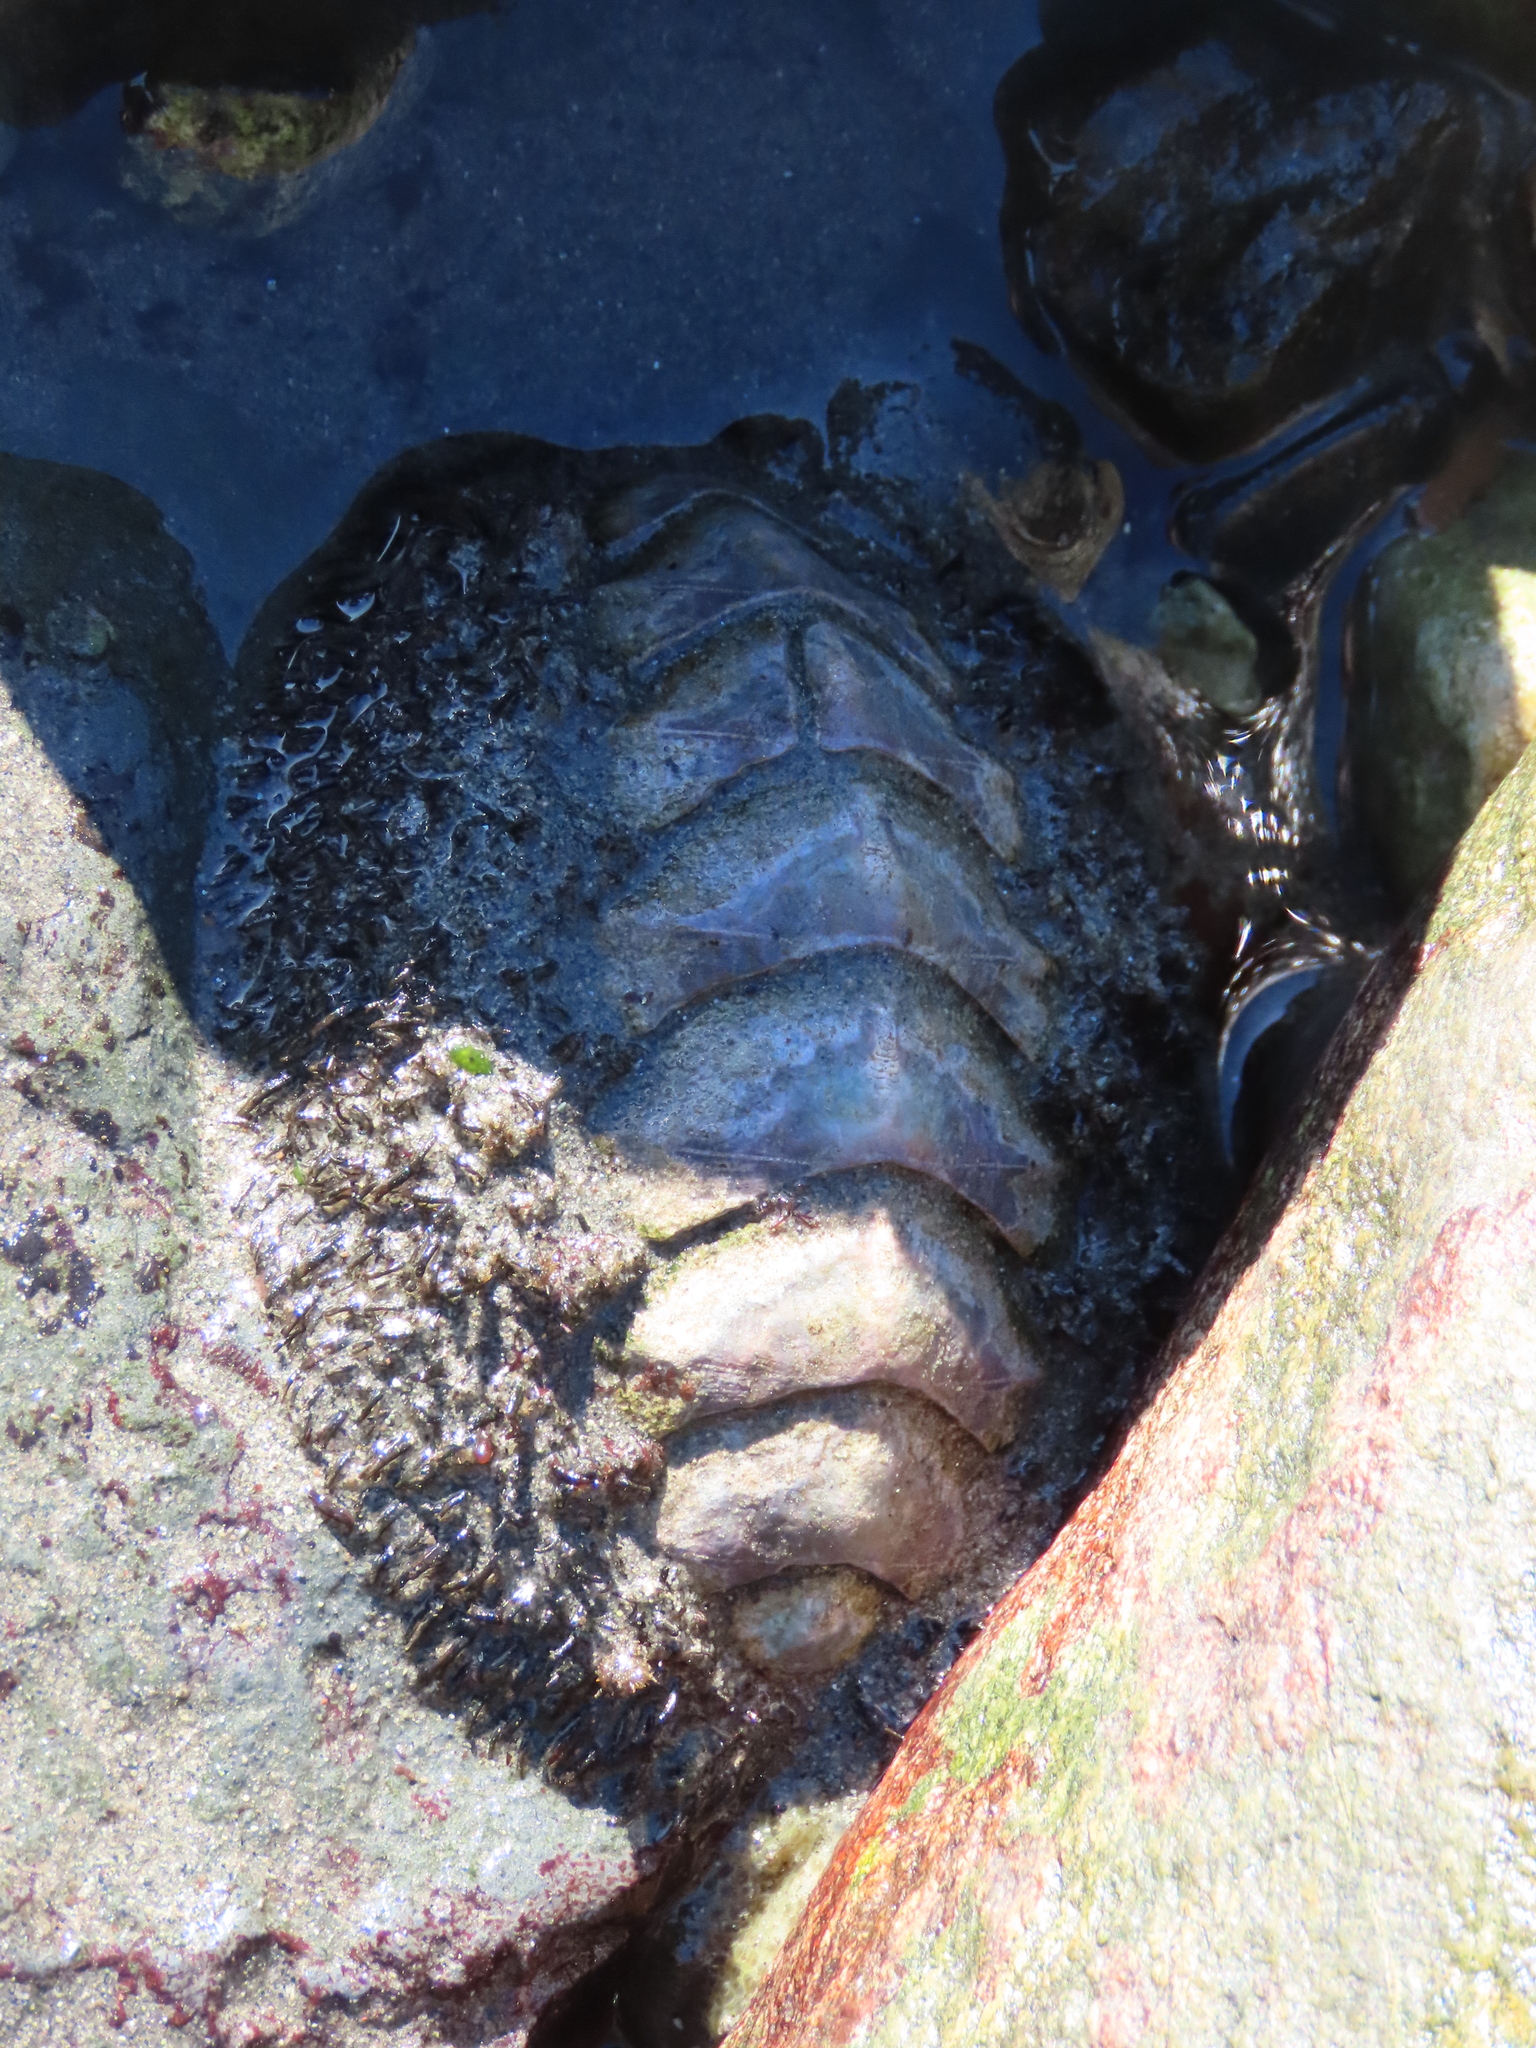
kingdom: Animalia
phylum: Mollusca
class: Polyplacophora
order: Chitonida
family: Mopaliidae
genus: Mopalia
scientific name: Mopalia muscosa
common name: Mossy chiton
